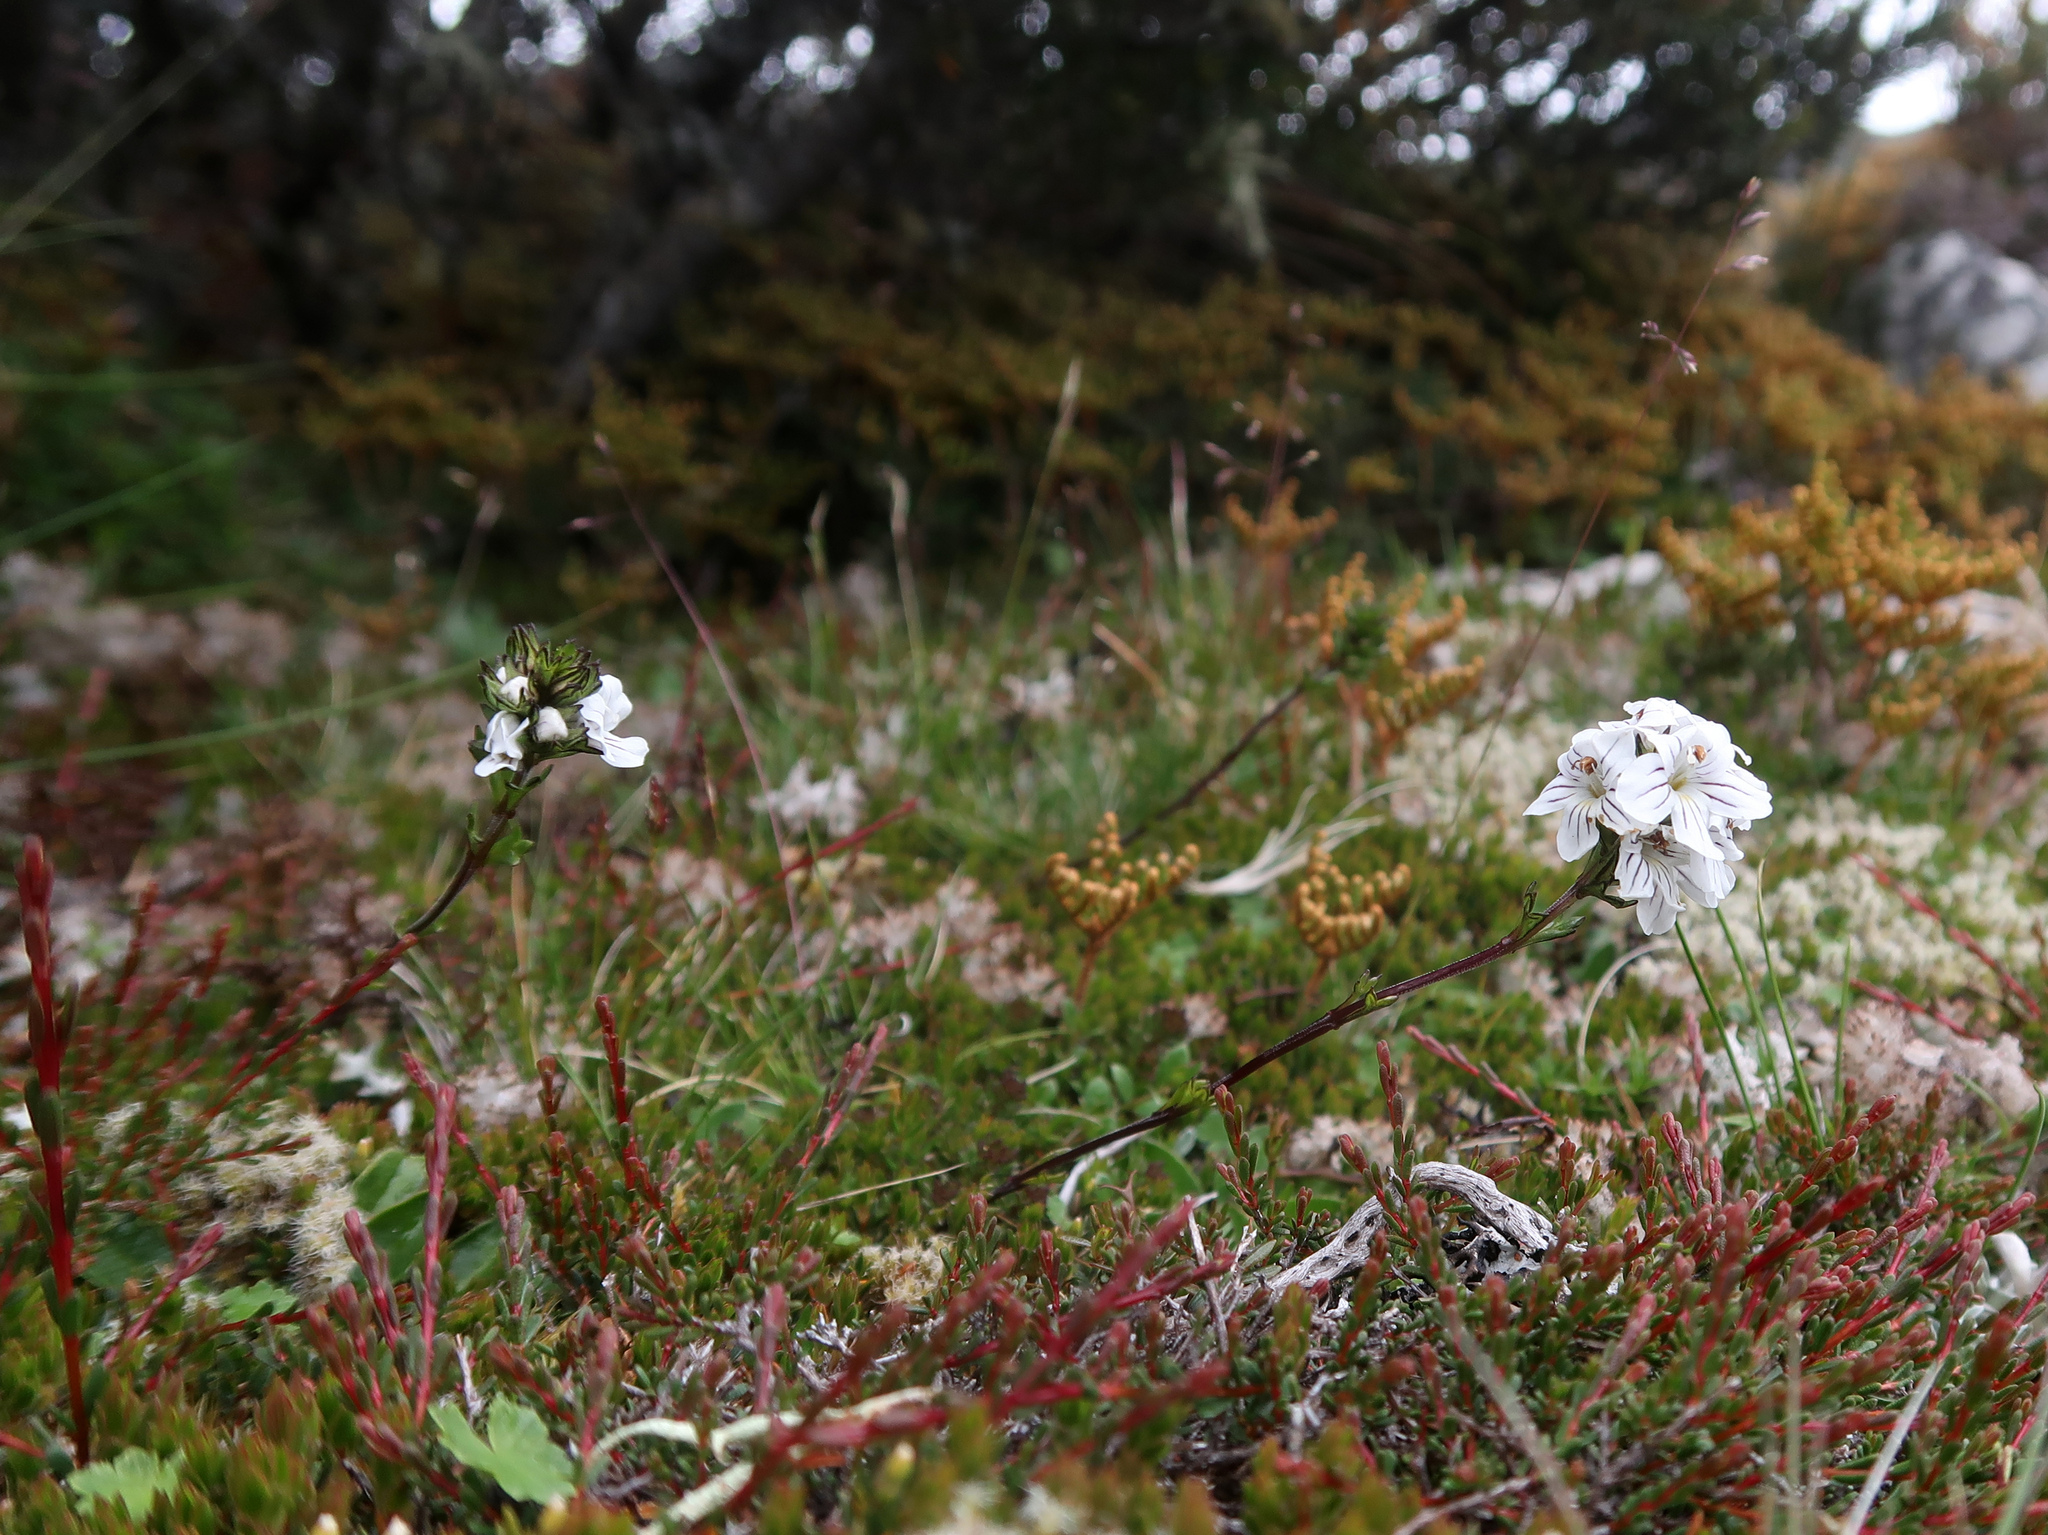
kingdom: Plantae
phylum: Tracheophyta
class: Magnoliopsida
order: Lamiales
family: Orobanchaceae
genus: Euphrasia
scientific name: Euphrasia striata
